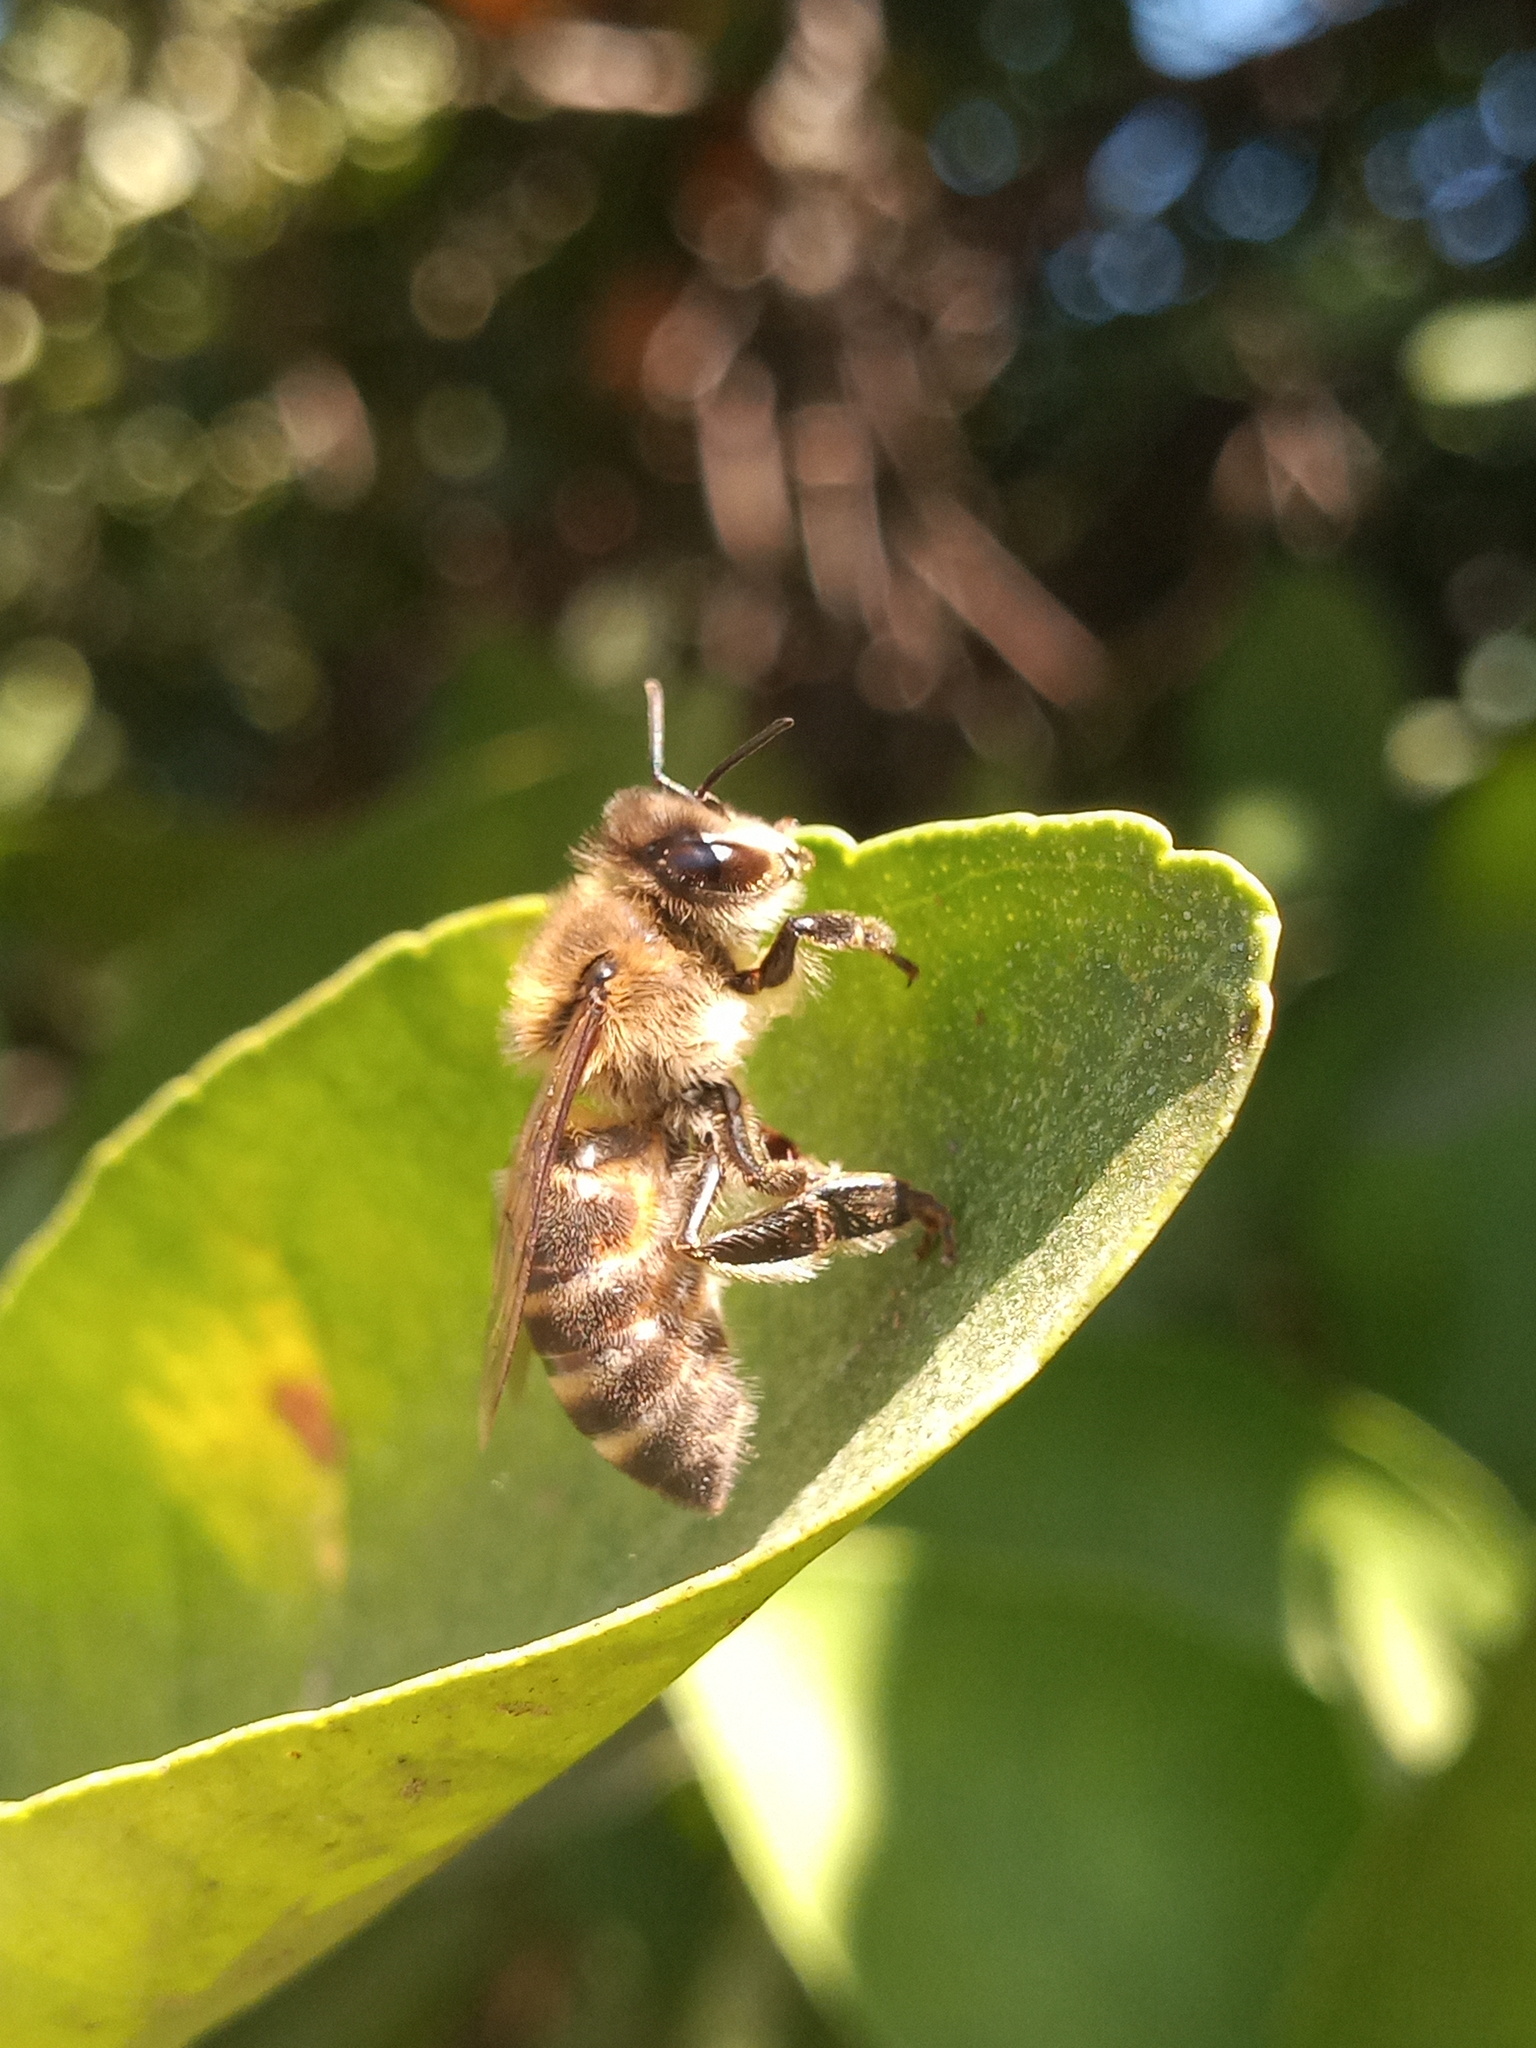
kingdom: Animalia
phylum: Arthropoda
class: Insecta
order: Hymenoptera
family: Apidae
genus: Apis
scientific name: Apis mellifera
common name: Honey bee
